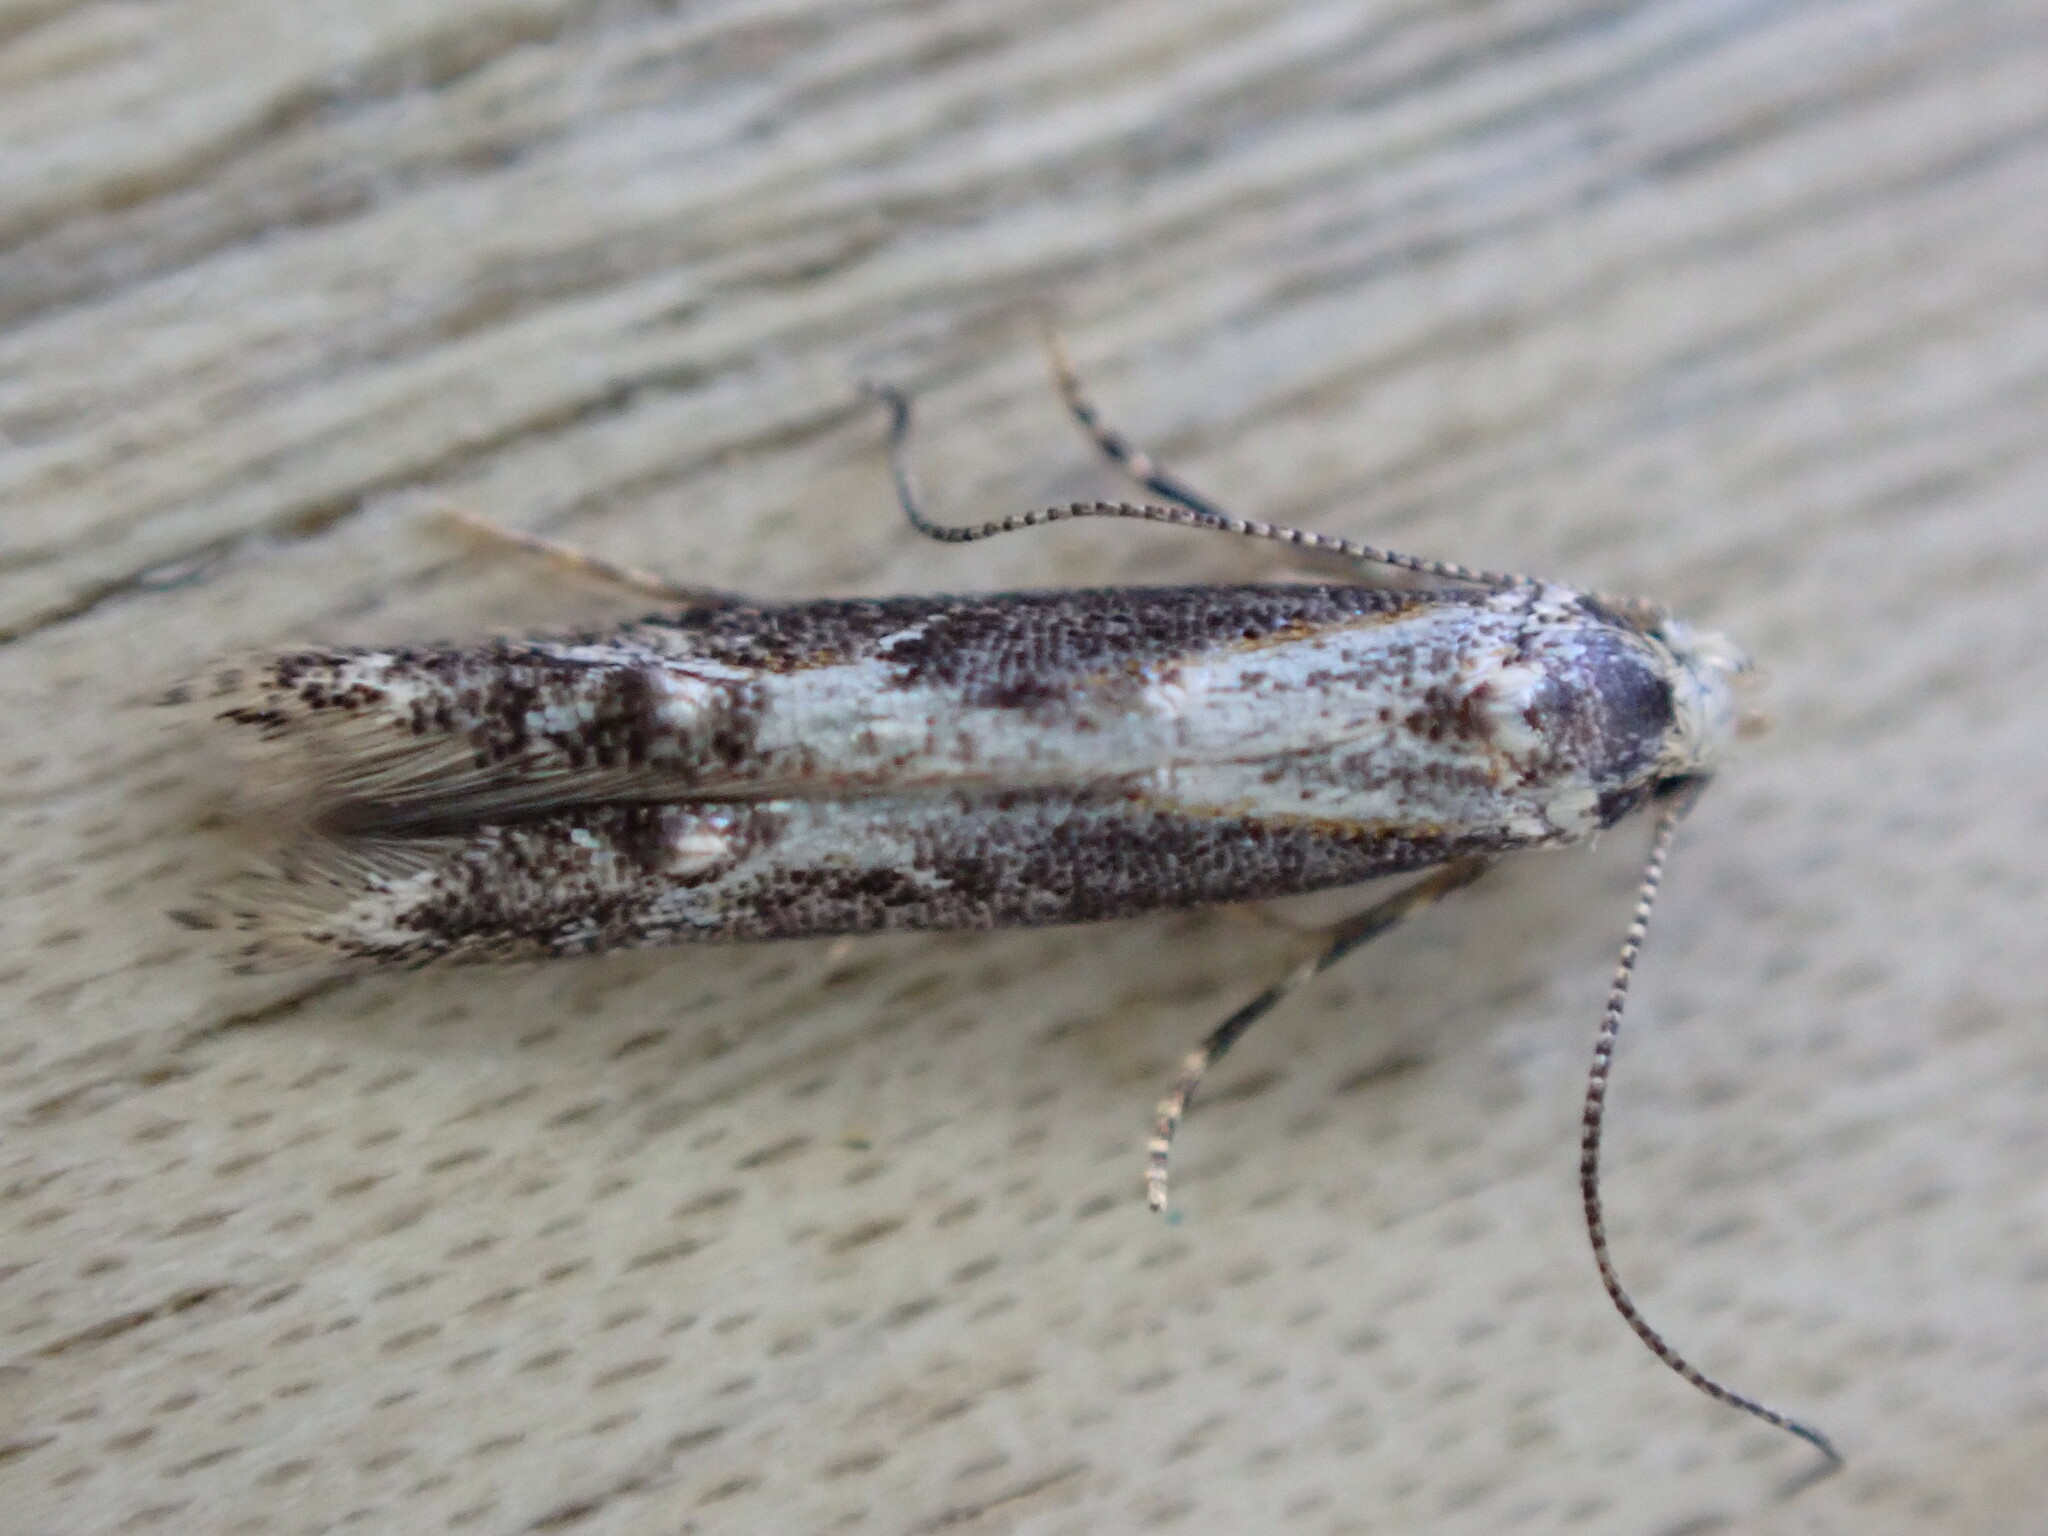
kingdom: Animalia
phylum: Arthropoda
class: Insecta
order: Lepidoptera
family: Elachistidae
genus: Blastodacna
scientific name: Blastodacna hellerella
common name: Hawthorn cosmet
